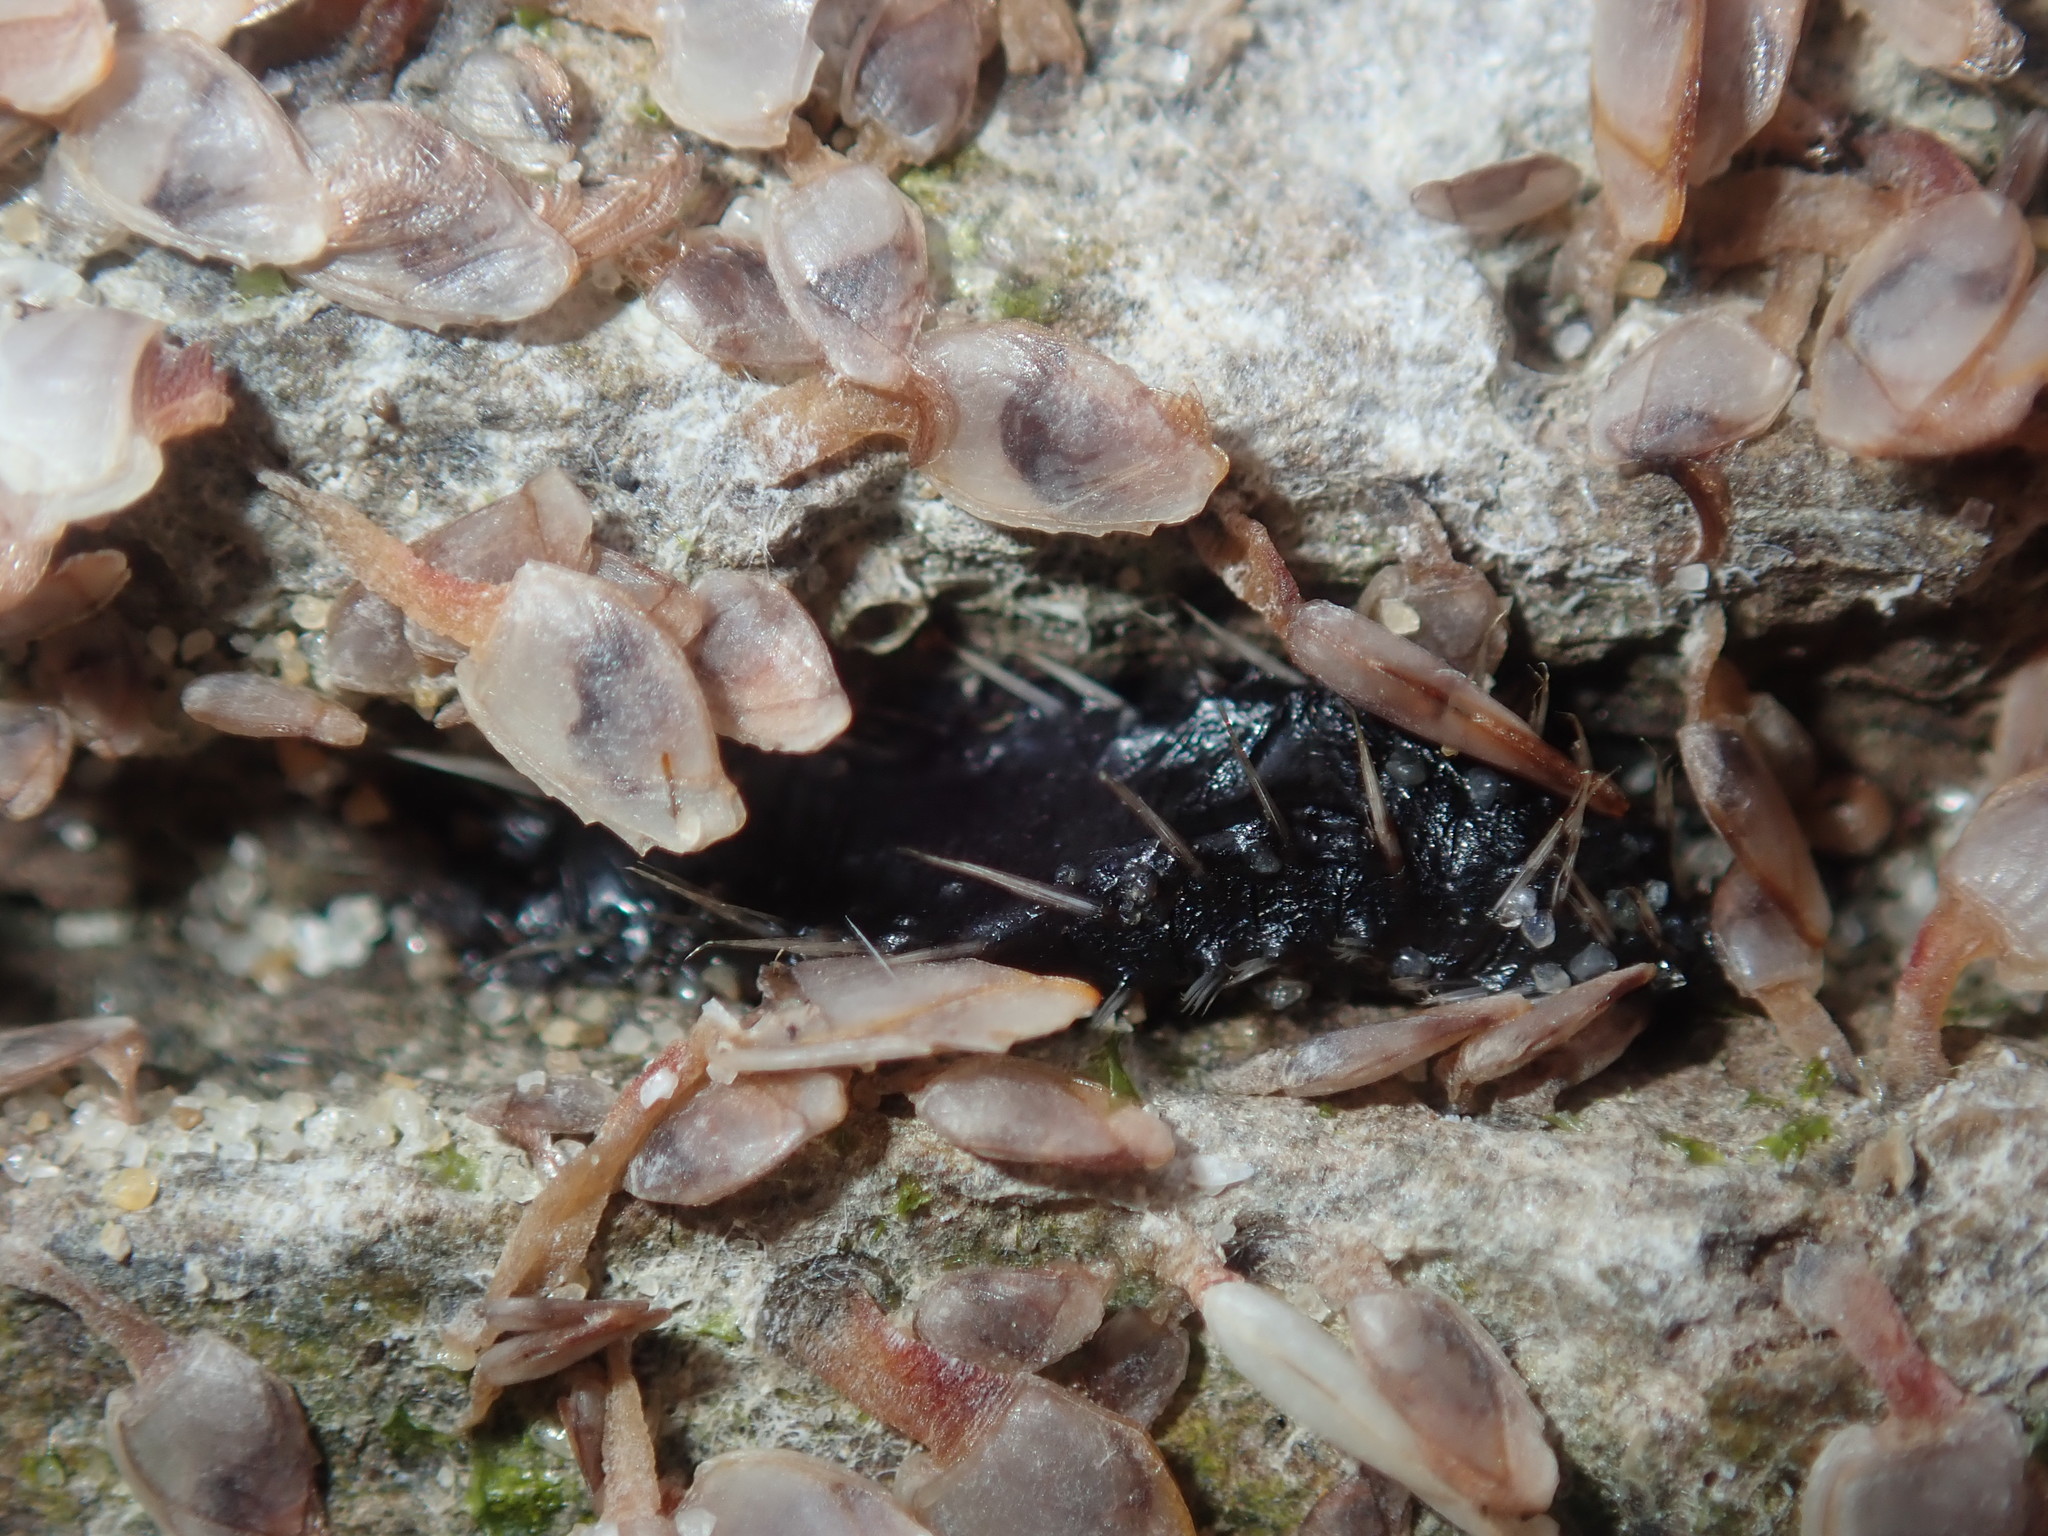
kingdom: Animalia
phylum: Annelida
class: Polychaeta
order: Amphinomida
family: Amphinomidae
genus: Amphinome
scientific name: Amphinome rostrata
